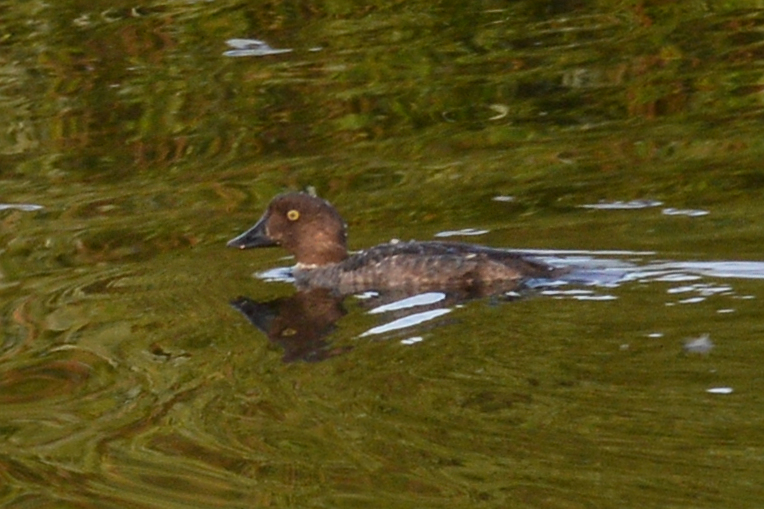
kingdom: Animalia
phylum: Chordata
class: Aves
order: Anseriformes
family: Anatidae
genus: Bucephala
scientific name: Bucephala clangula
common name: Common goldeneye
